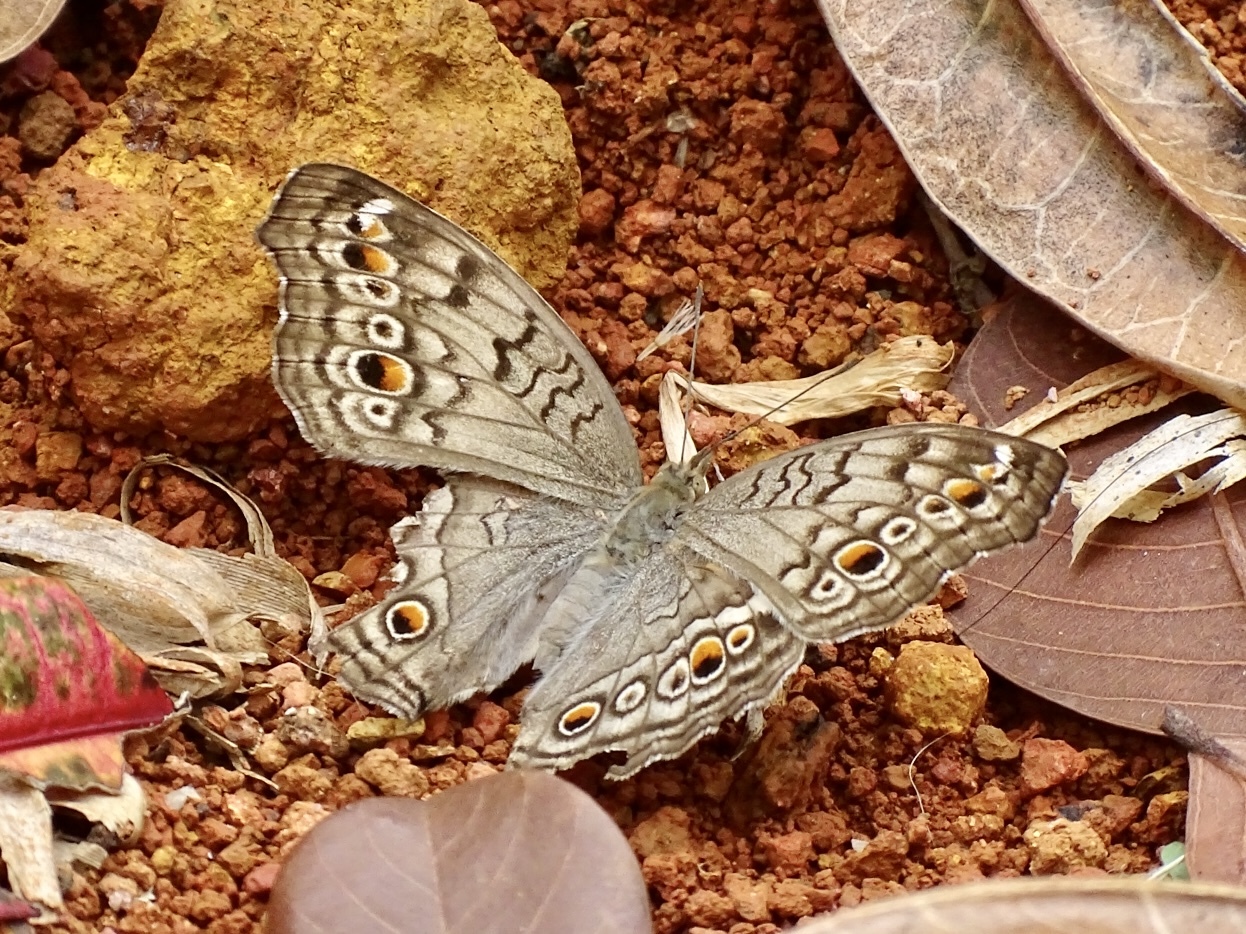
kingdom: Animalia
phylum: Arthropoda
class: Insecta
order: Lepidoptera
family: Nymphalidae
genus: Junonia
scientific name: Junonia atlites
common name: Grey pansy
